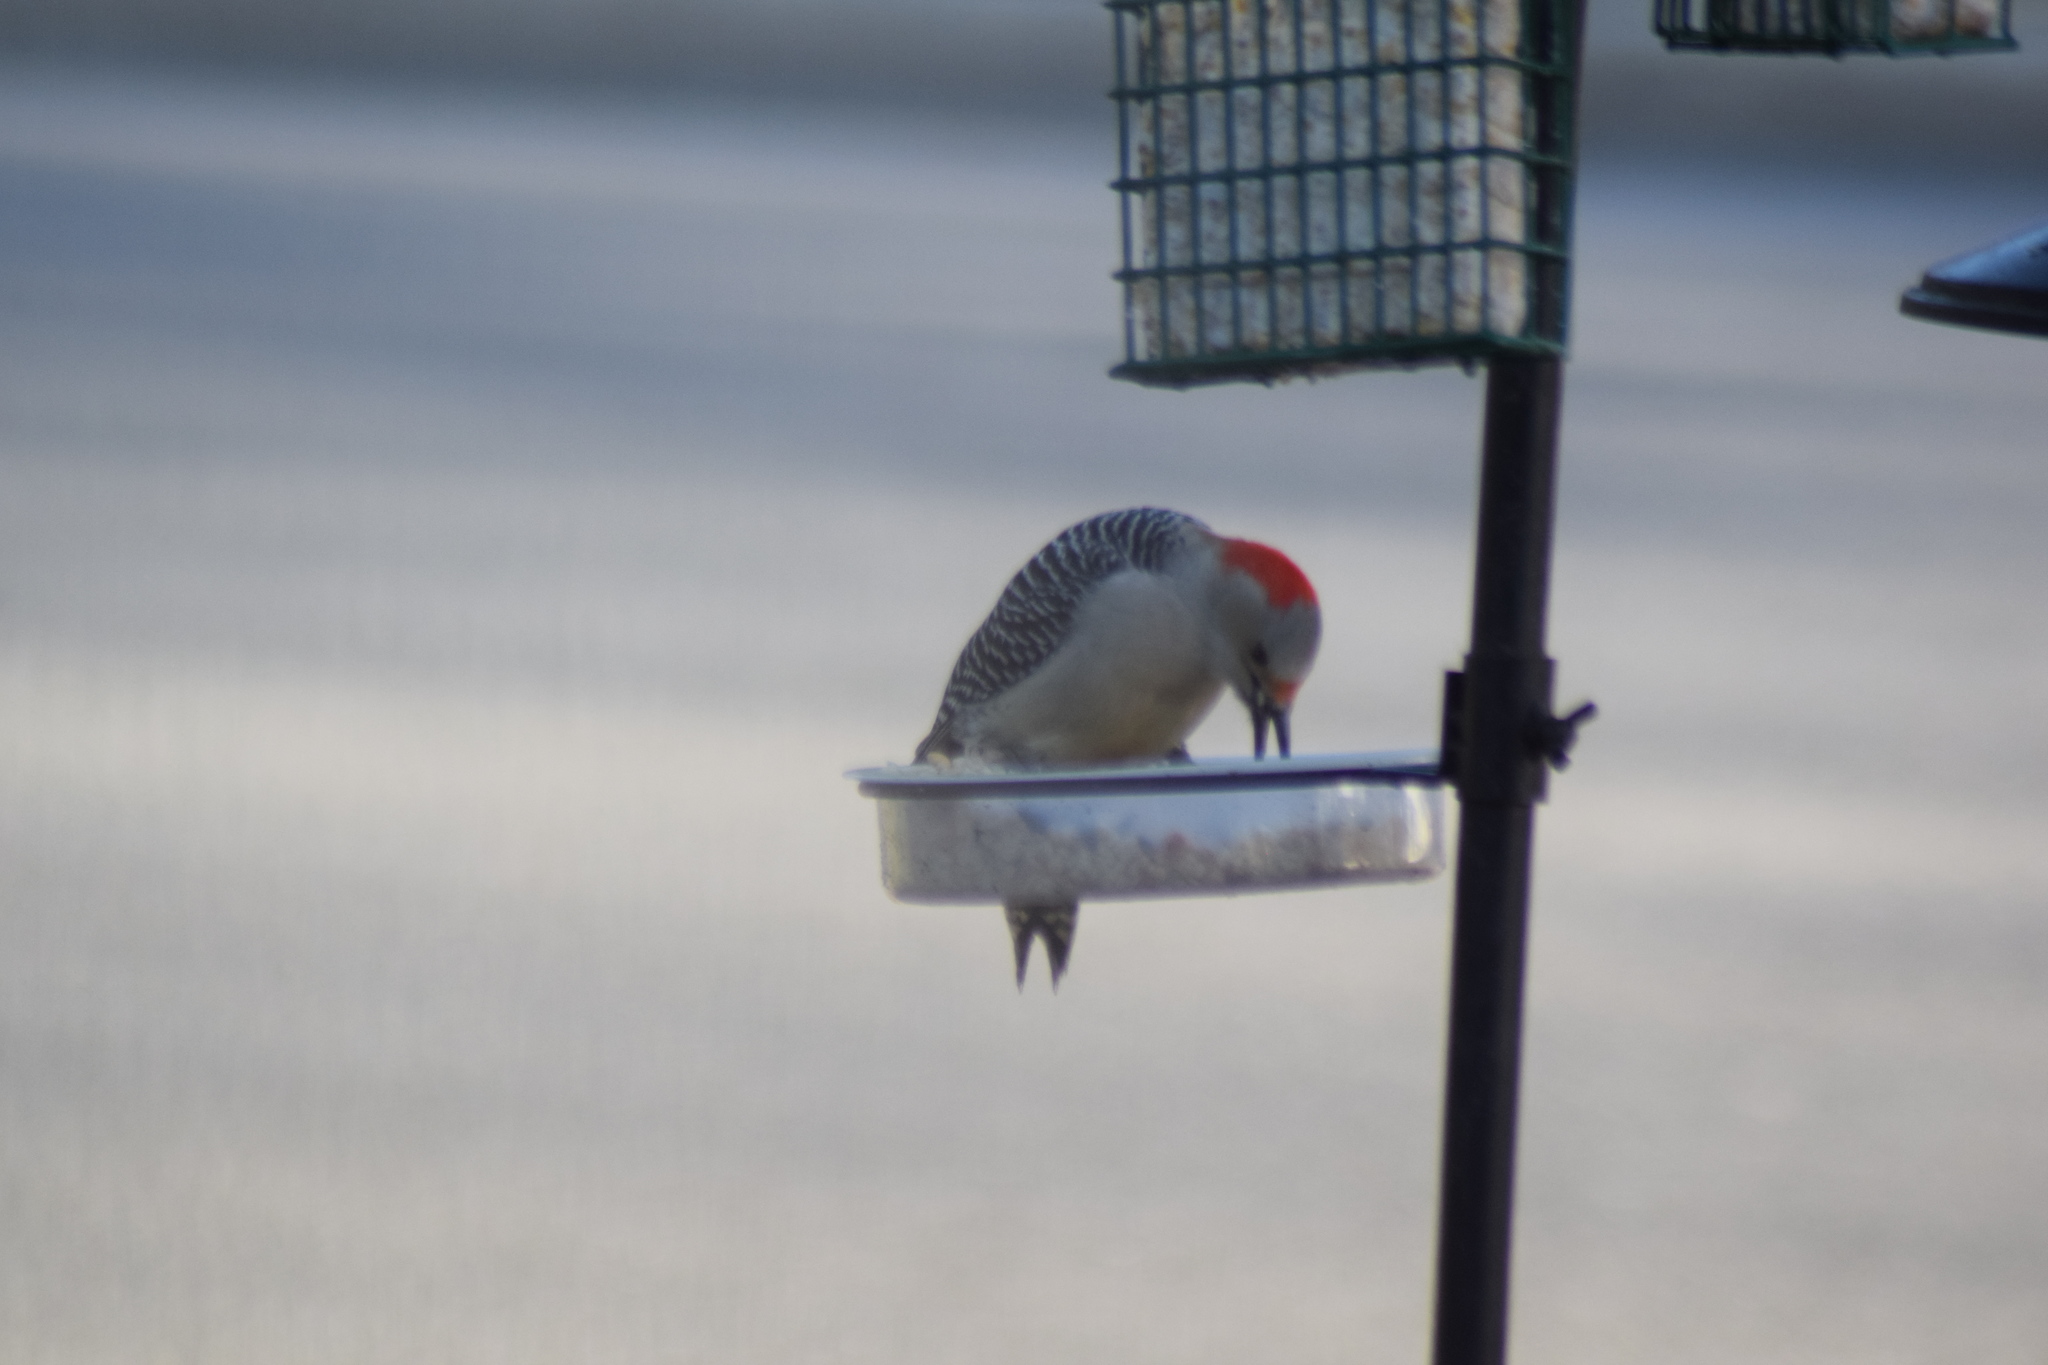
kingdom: Animalia
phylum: Chordata
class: Aves
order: Piciformes
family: Picidae
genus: Melanerpes
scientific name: Melanerpes carolinus
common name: Red-bellied woodpecker
